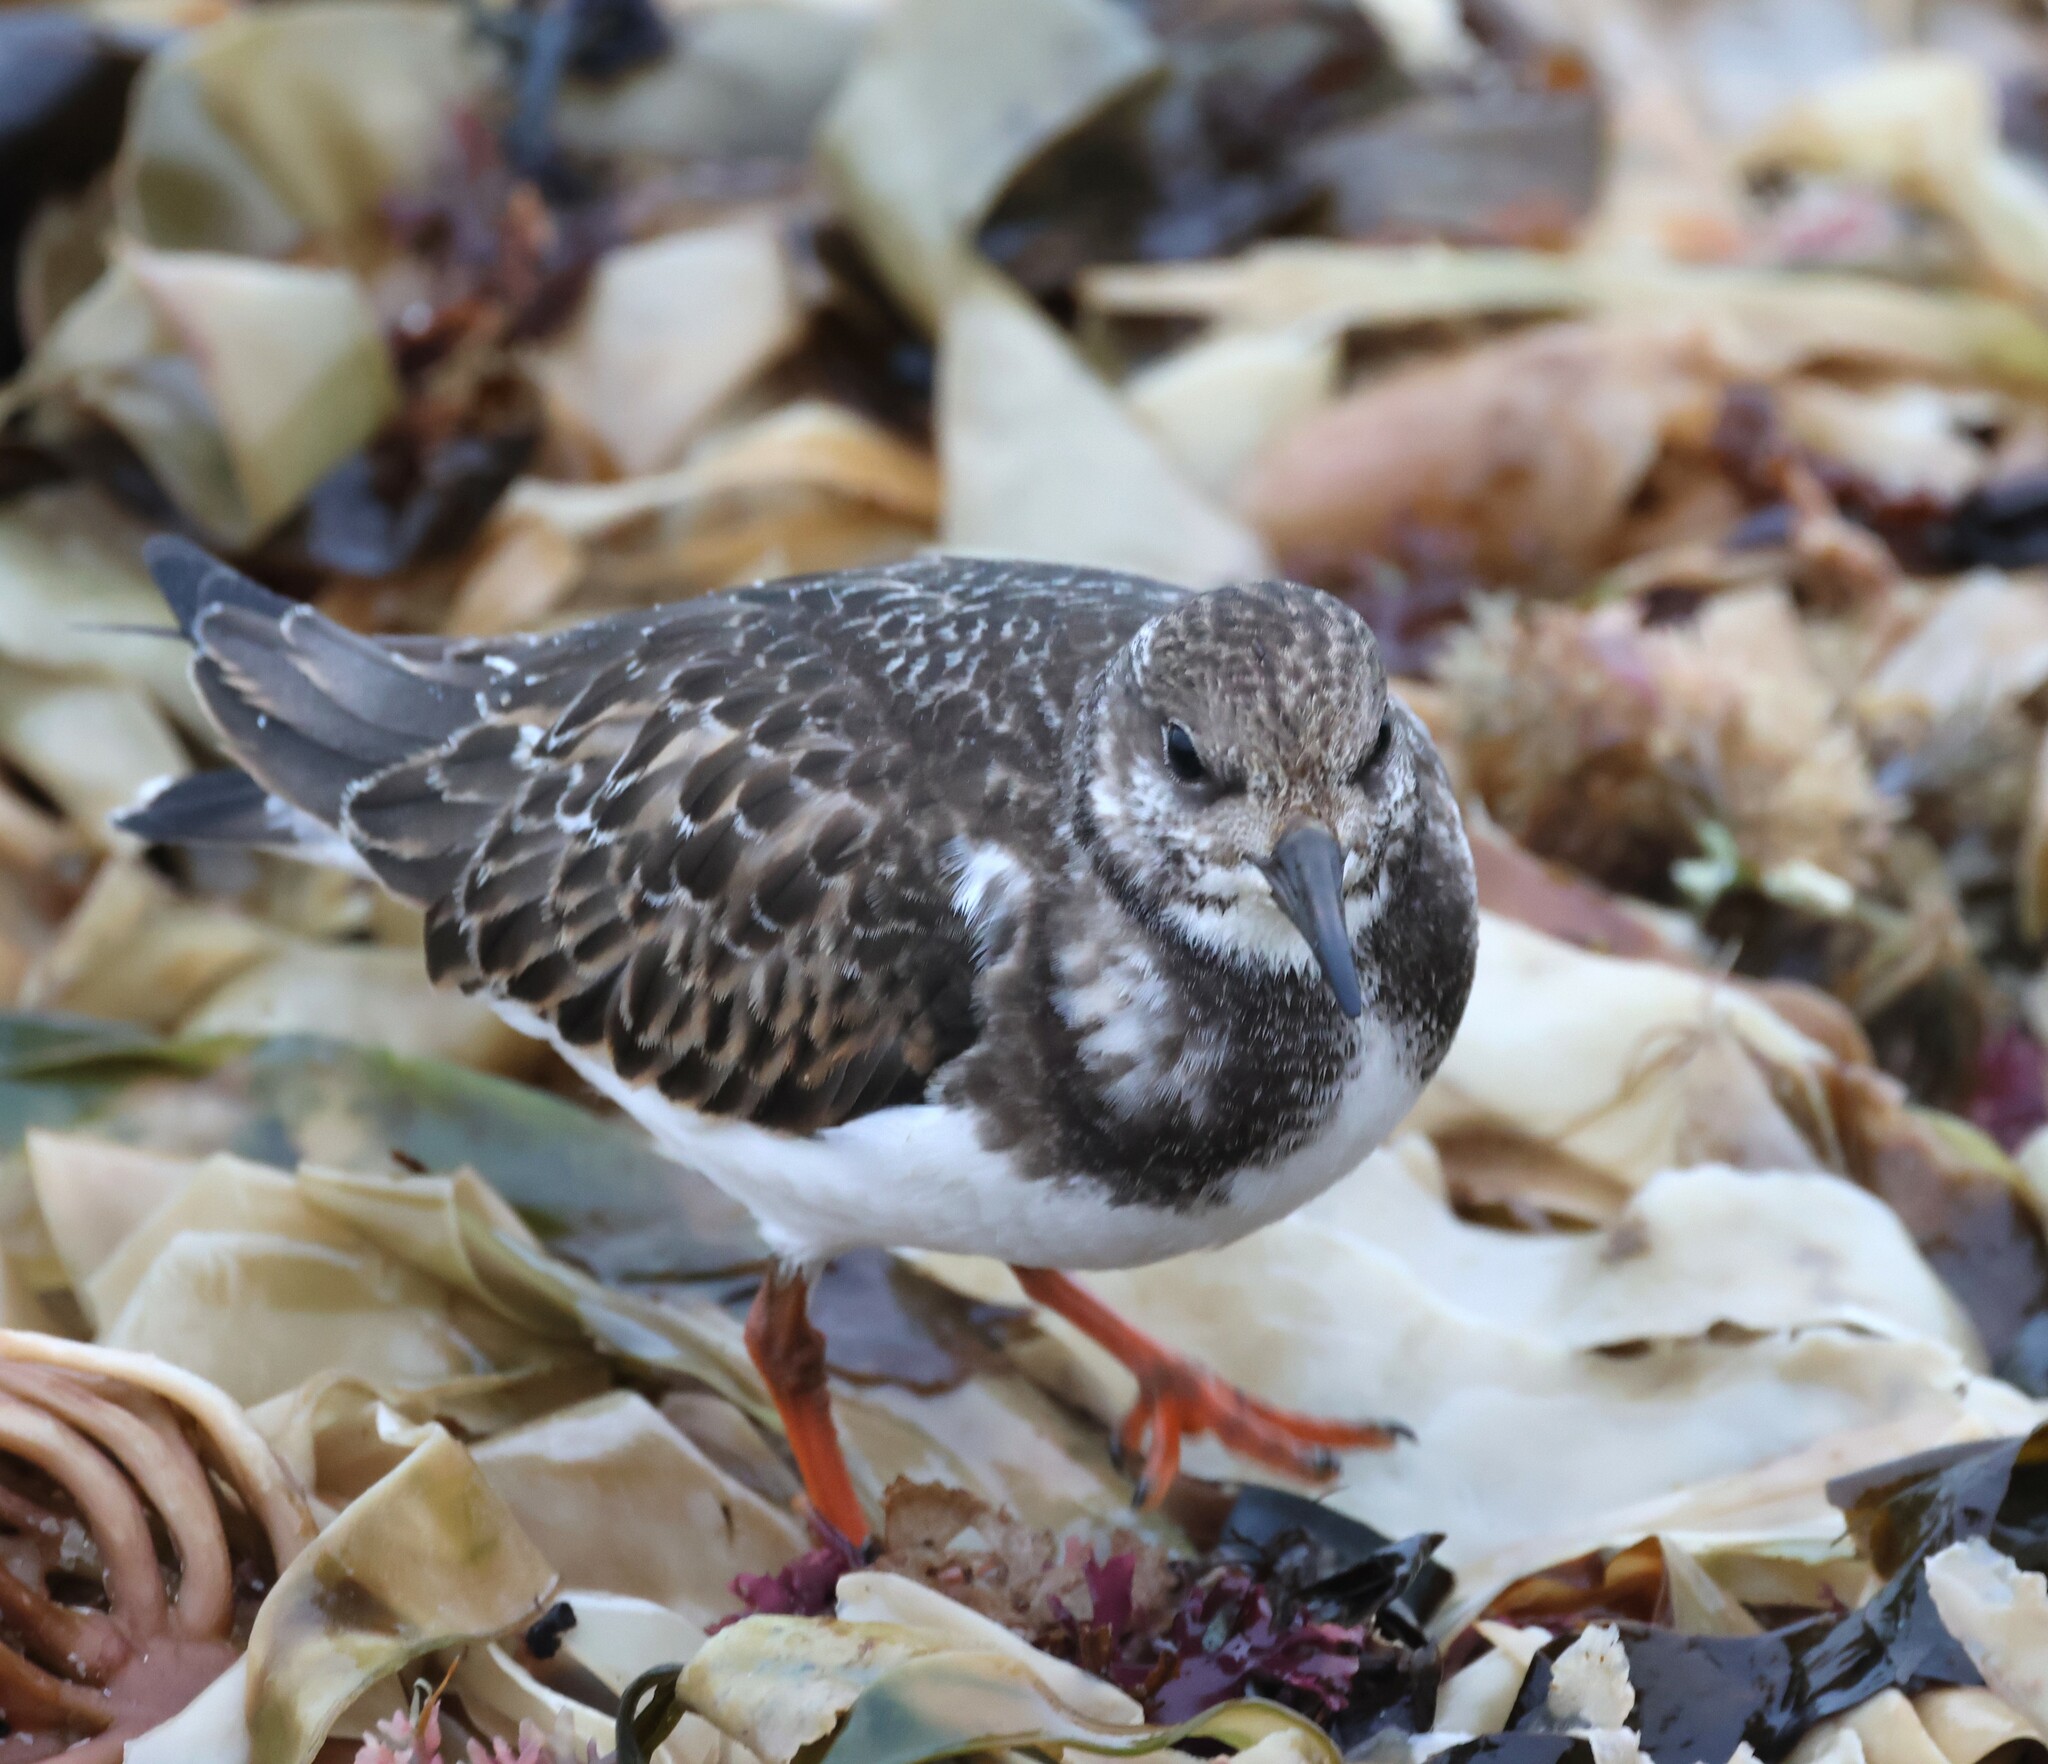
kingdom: Animalia
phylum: Chordata
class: Aves
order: Charadriiformes
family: Scolopacidae
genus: Arenaria
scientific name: Arenaria interpres
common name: Ruddy turnstone
